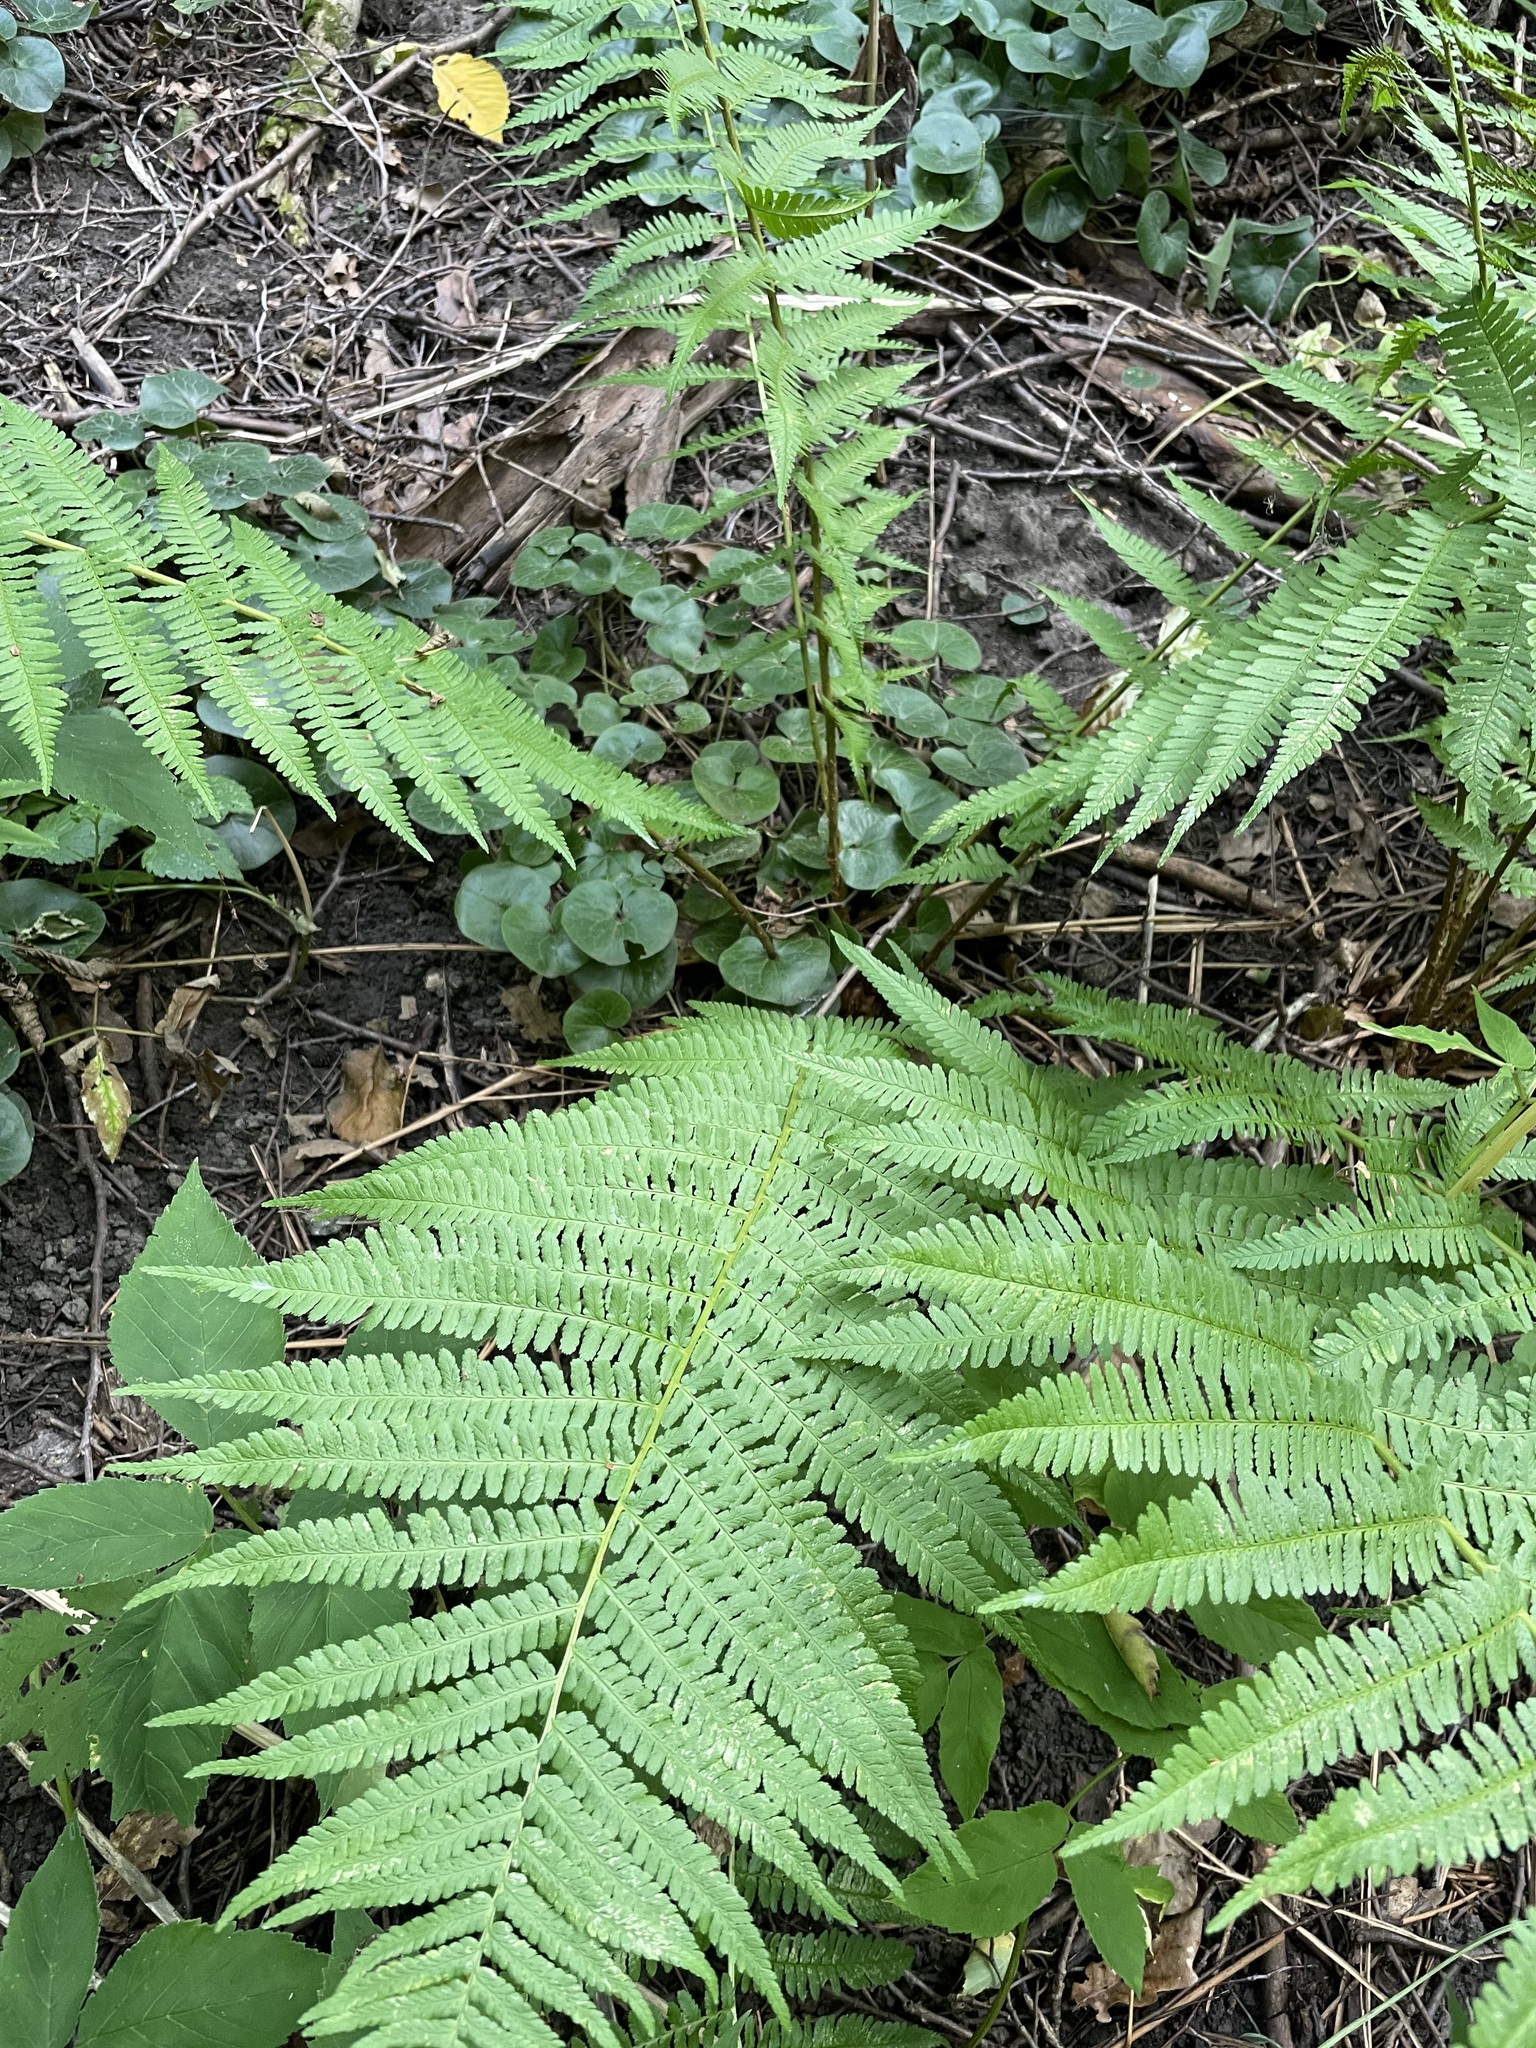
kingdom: Plantae
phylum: Tracheophyta
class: Polypodiopsida
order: Polypodiales
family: Dryopteridaceae
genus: Dryopteris
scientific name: Dryopteris filix-mas
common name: Male fern
